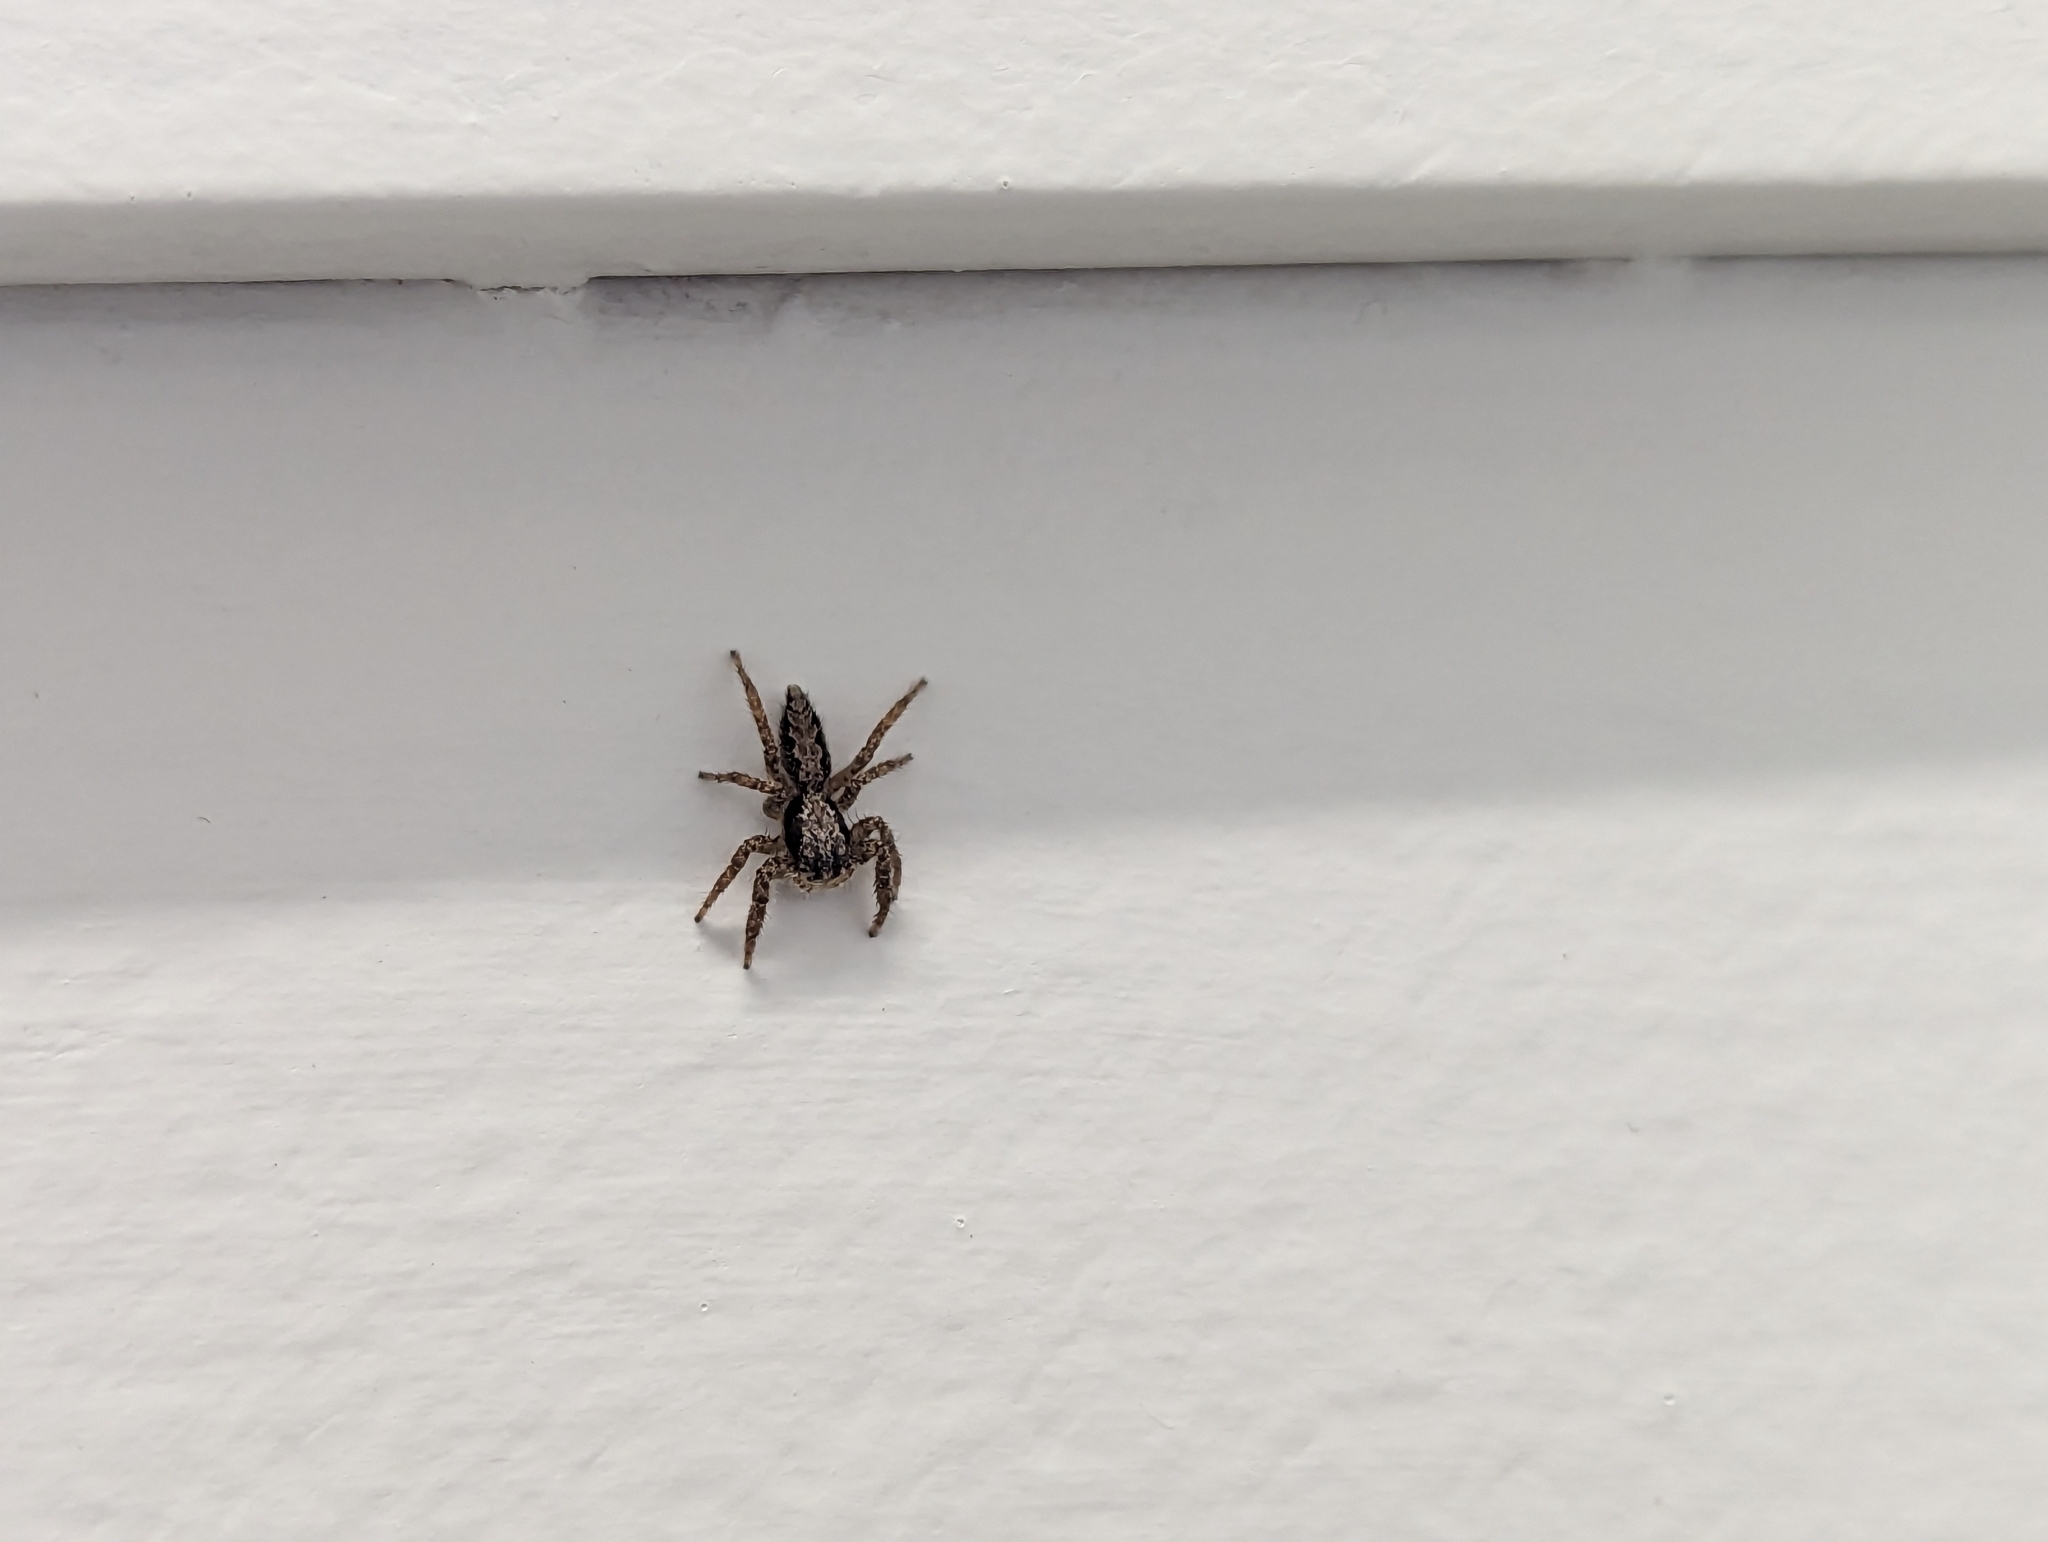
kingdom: Animalia
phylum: Arthropoda
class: Arachnida
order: Araneae
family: Salticidae
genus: Platycryptus
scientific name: Platycryptus californicus
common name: Jumping spiders
